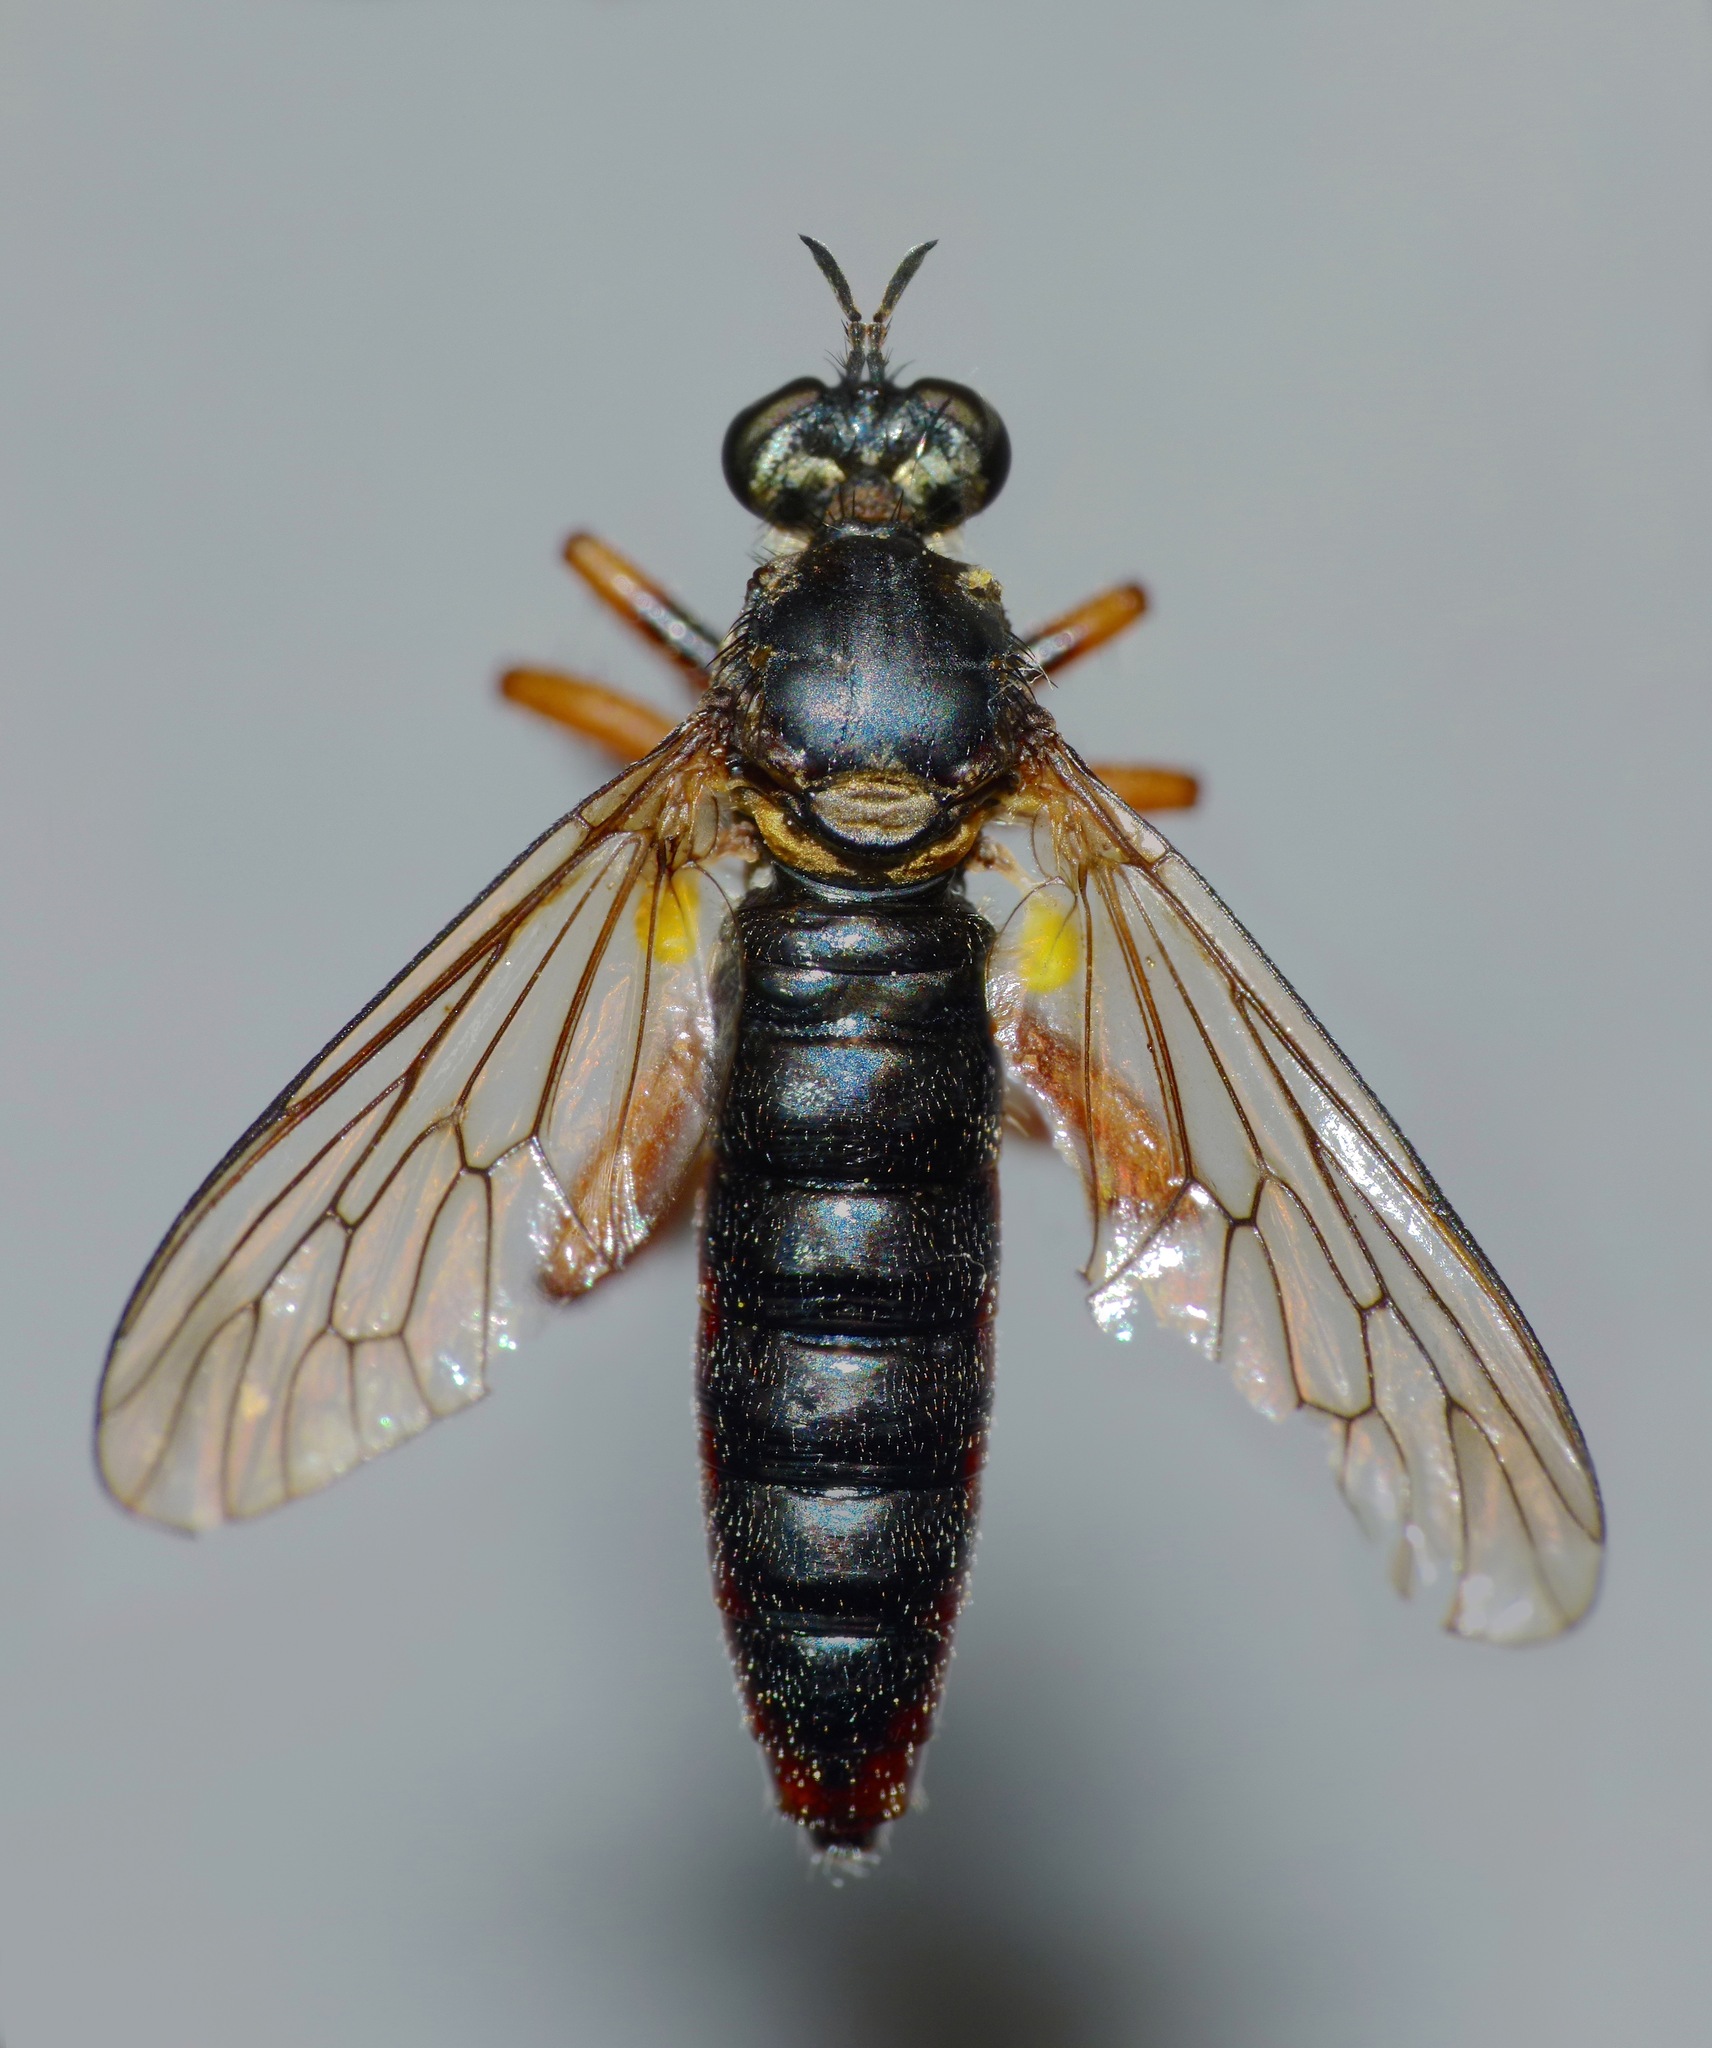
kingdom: Animalia
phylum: Arthropoda
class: Insecta
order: Diptera
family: Asilidae
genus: Saropogon
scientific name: Saropogon fugiens
